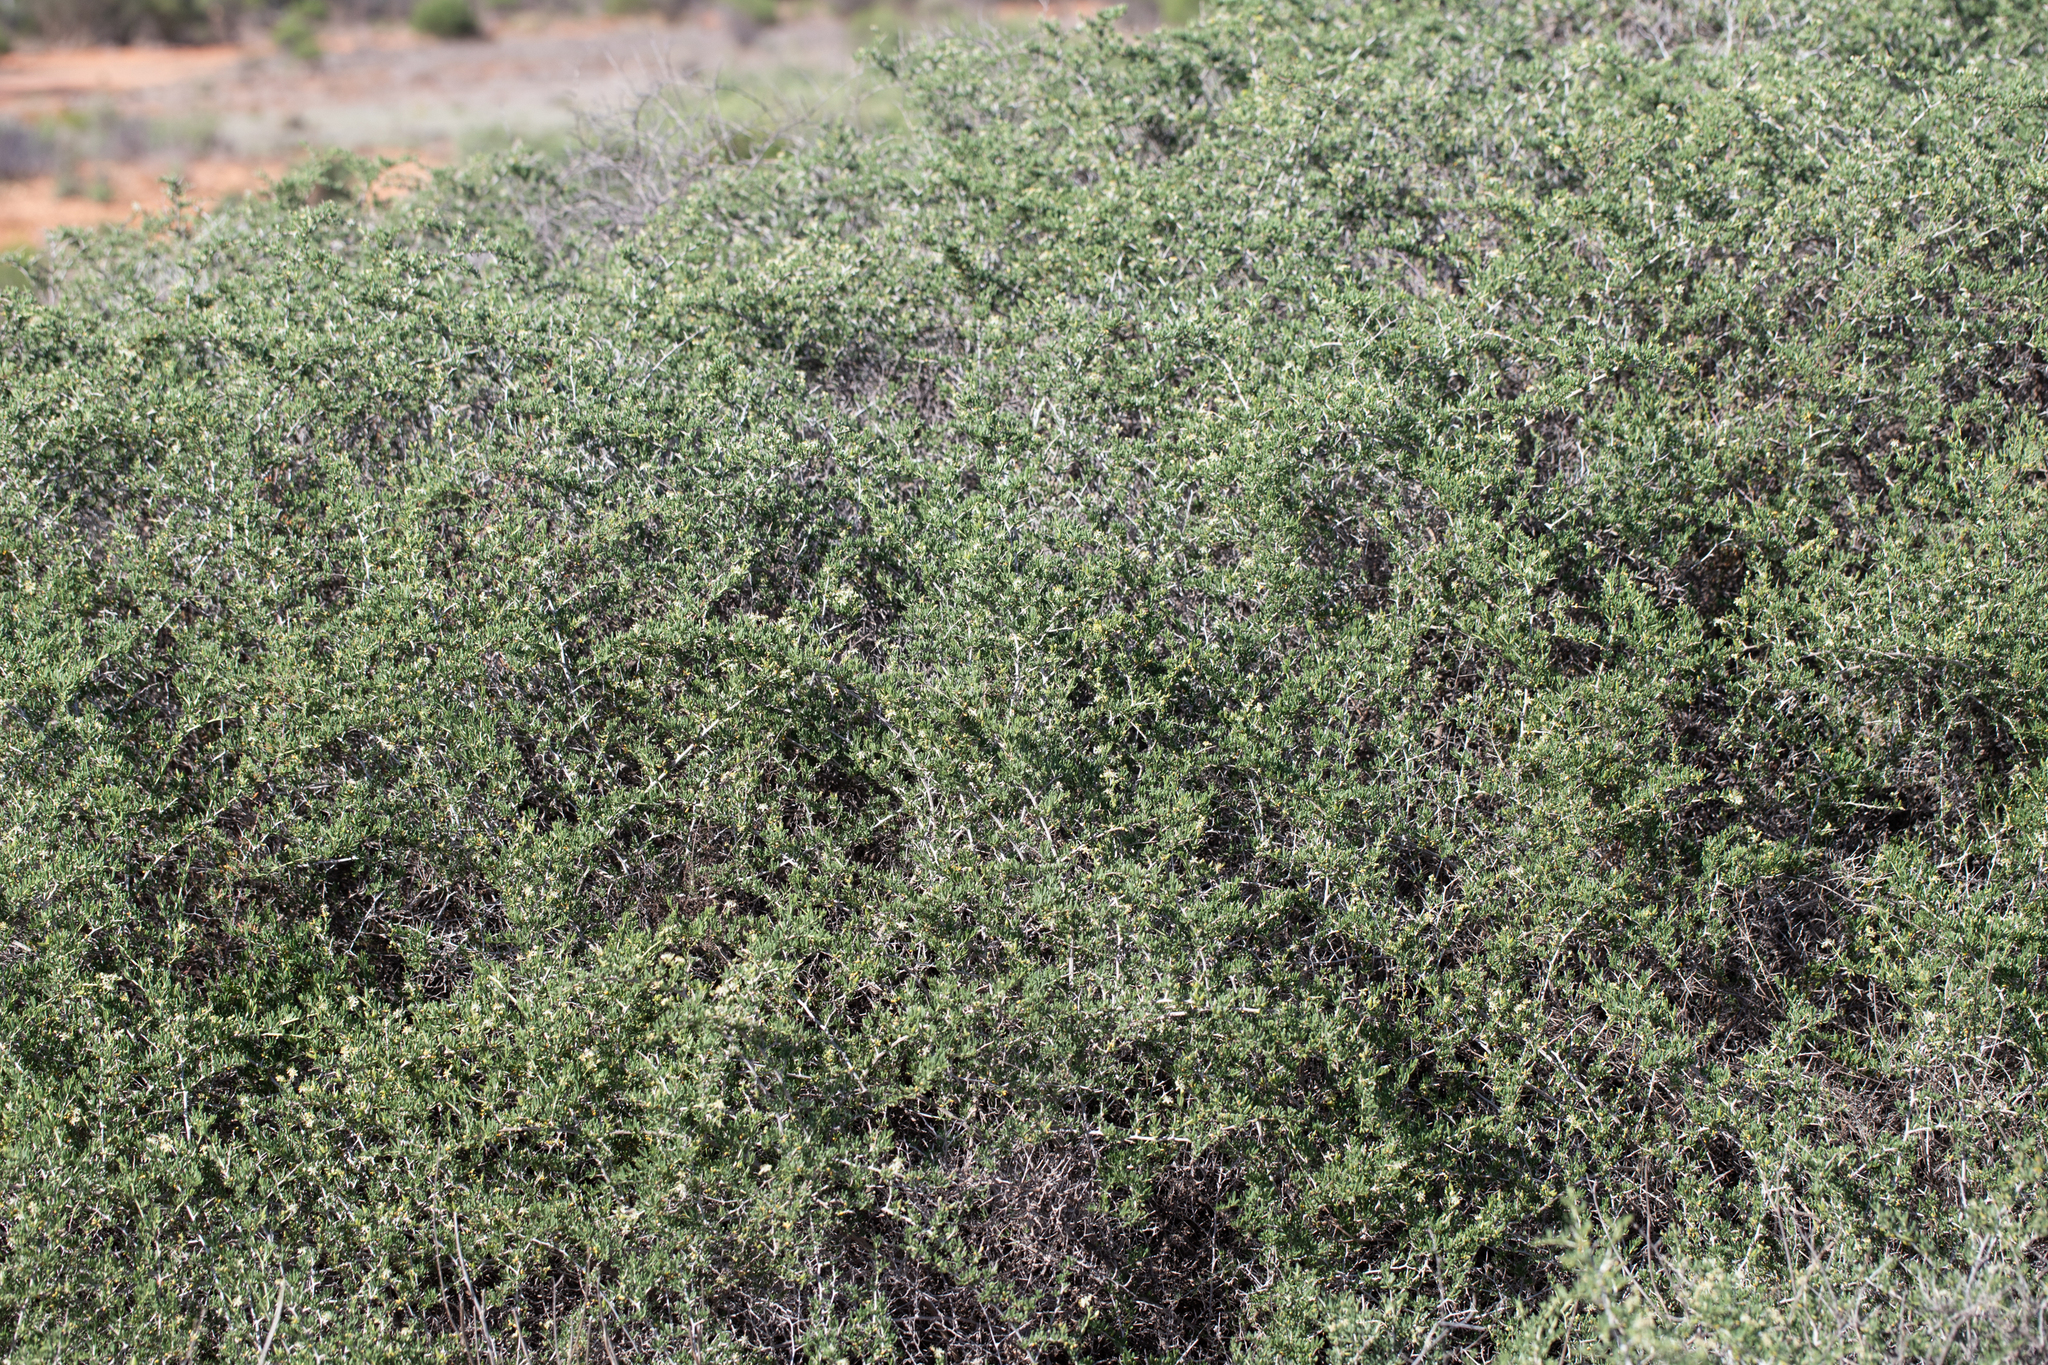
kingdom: Plantae
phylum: Tracheophyta
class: Magnoliopsida
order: Sapindales
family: Nitrariaceae
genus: Nitraria
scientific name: Nitraria billardierei
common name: Dillonbush
